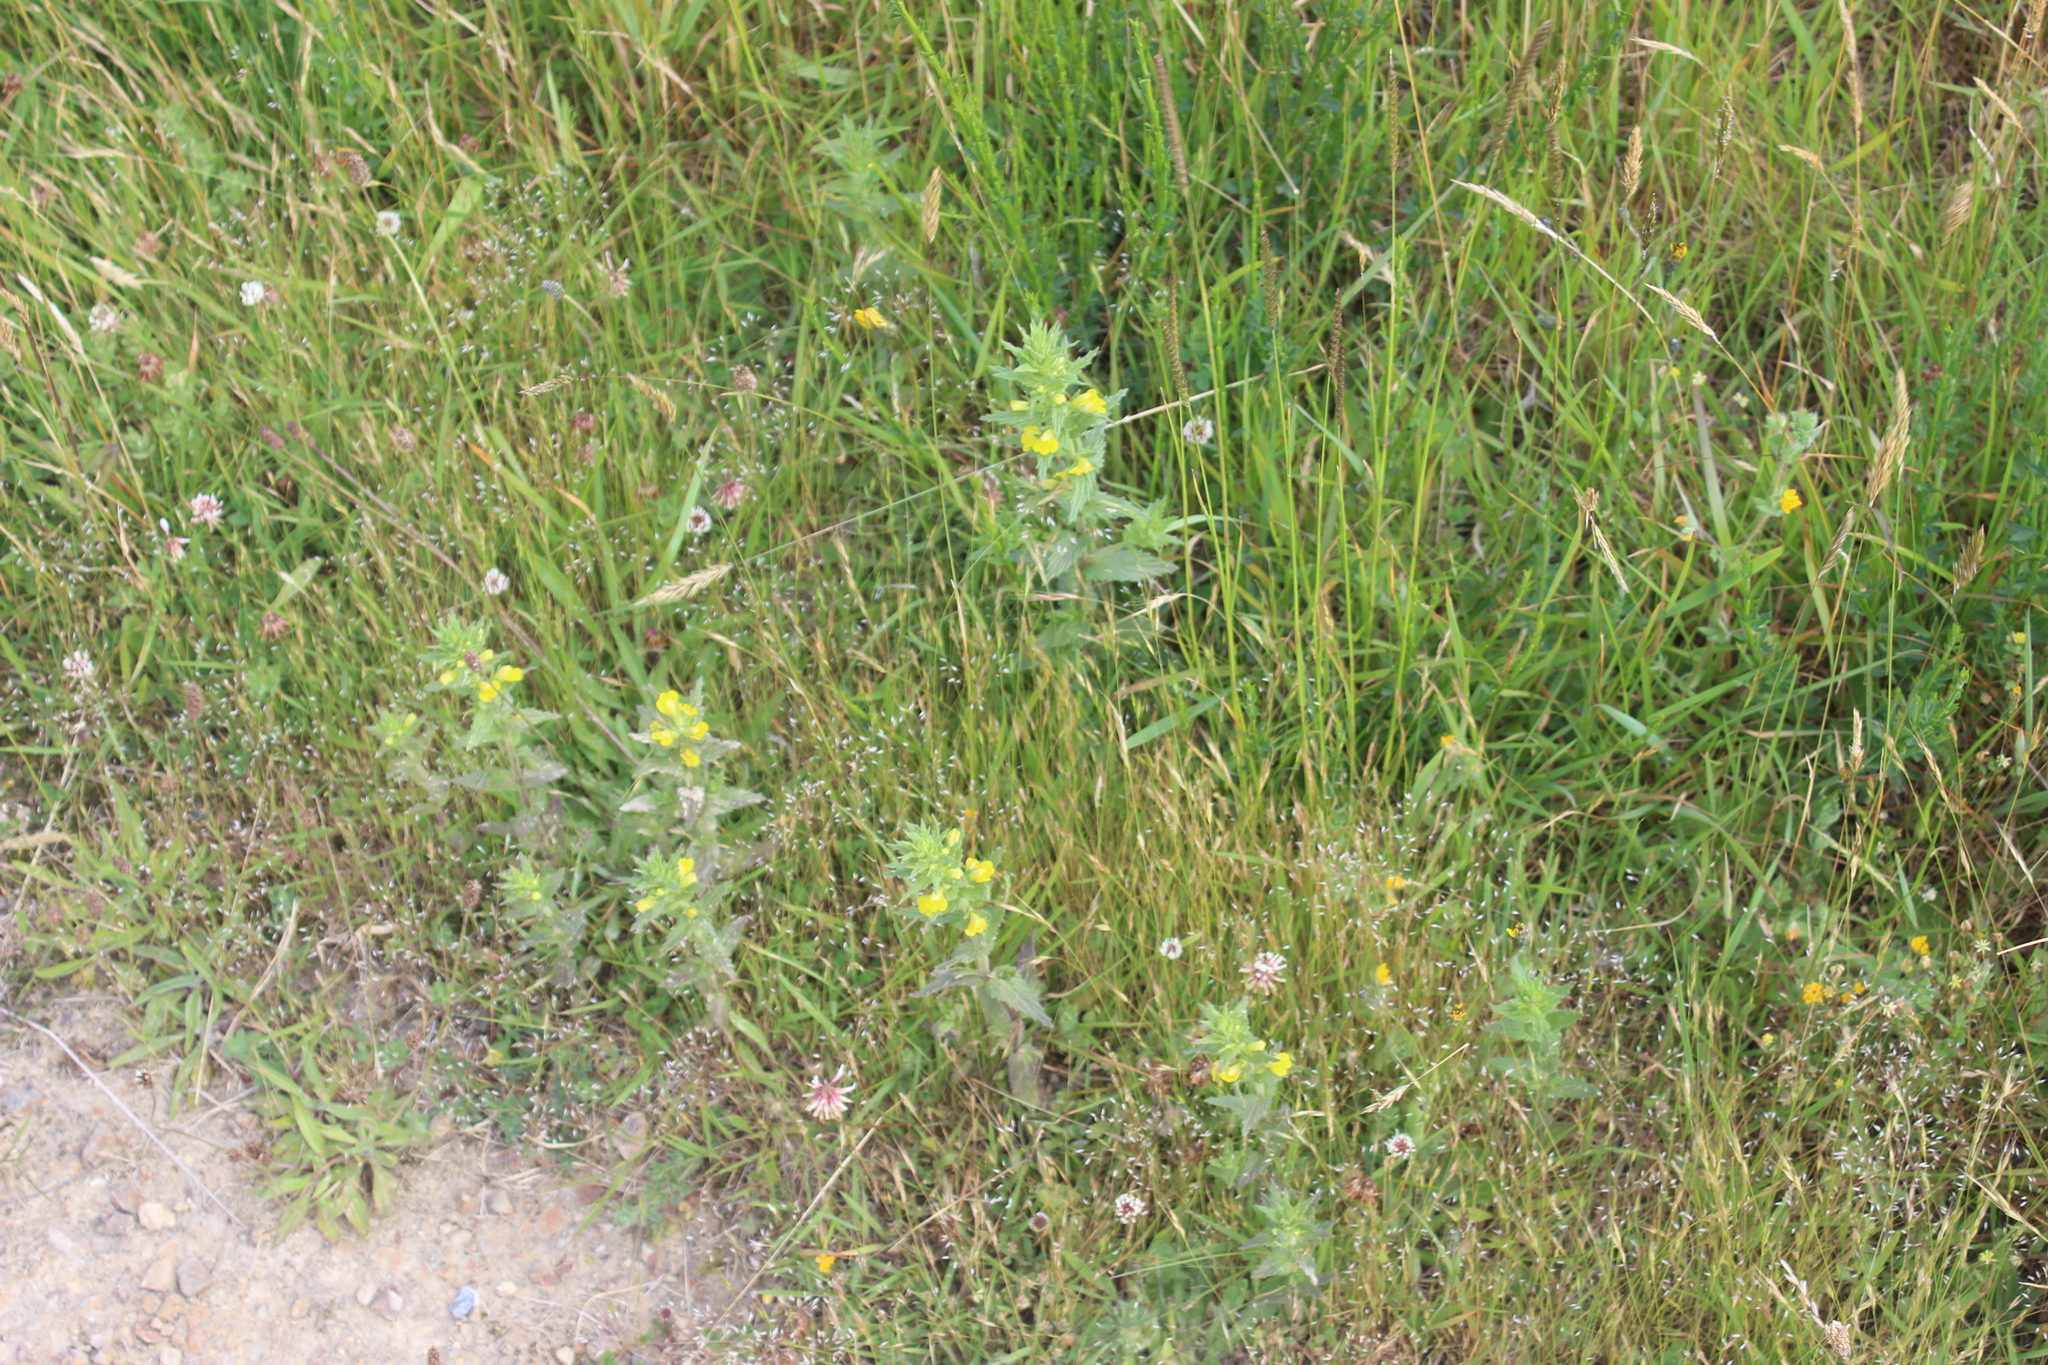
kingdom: Plantae
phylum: Tracheophyta
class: Magnoliopsida
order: Lamiales
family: Orobanchaceae
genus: Bellardia
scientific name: Bellardia viscosa
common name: Sticky parentucellia
